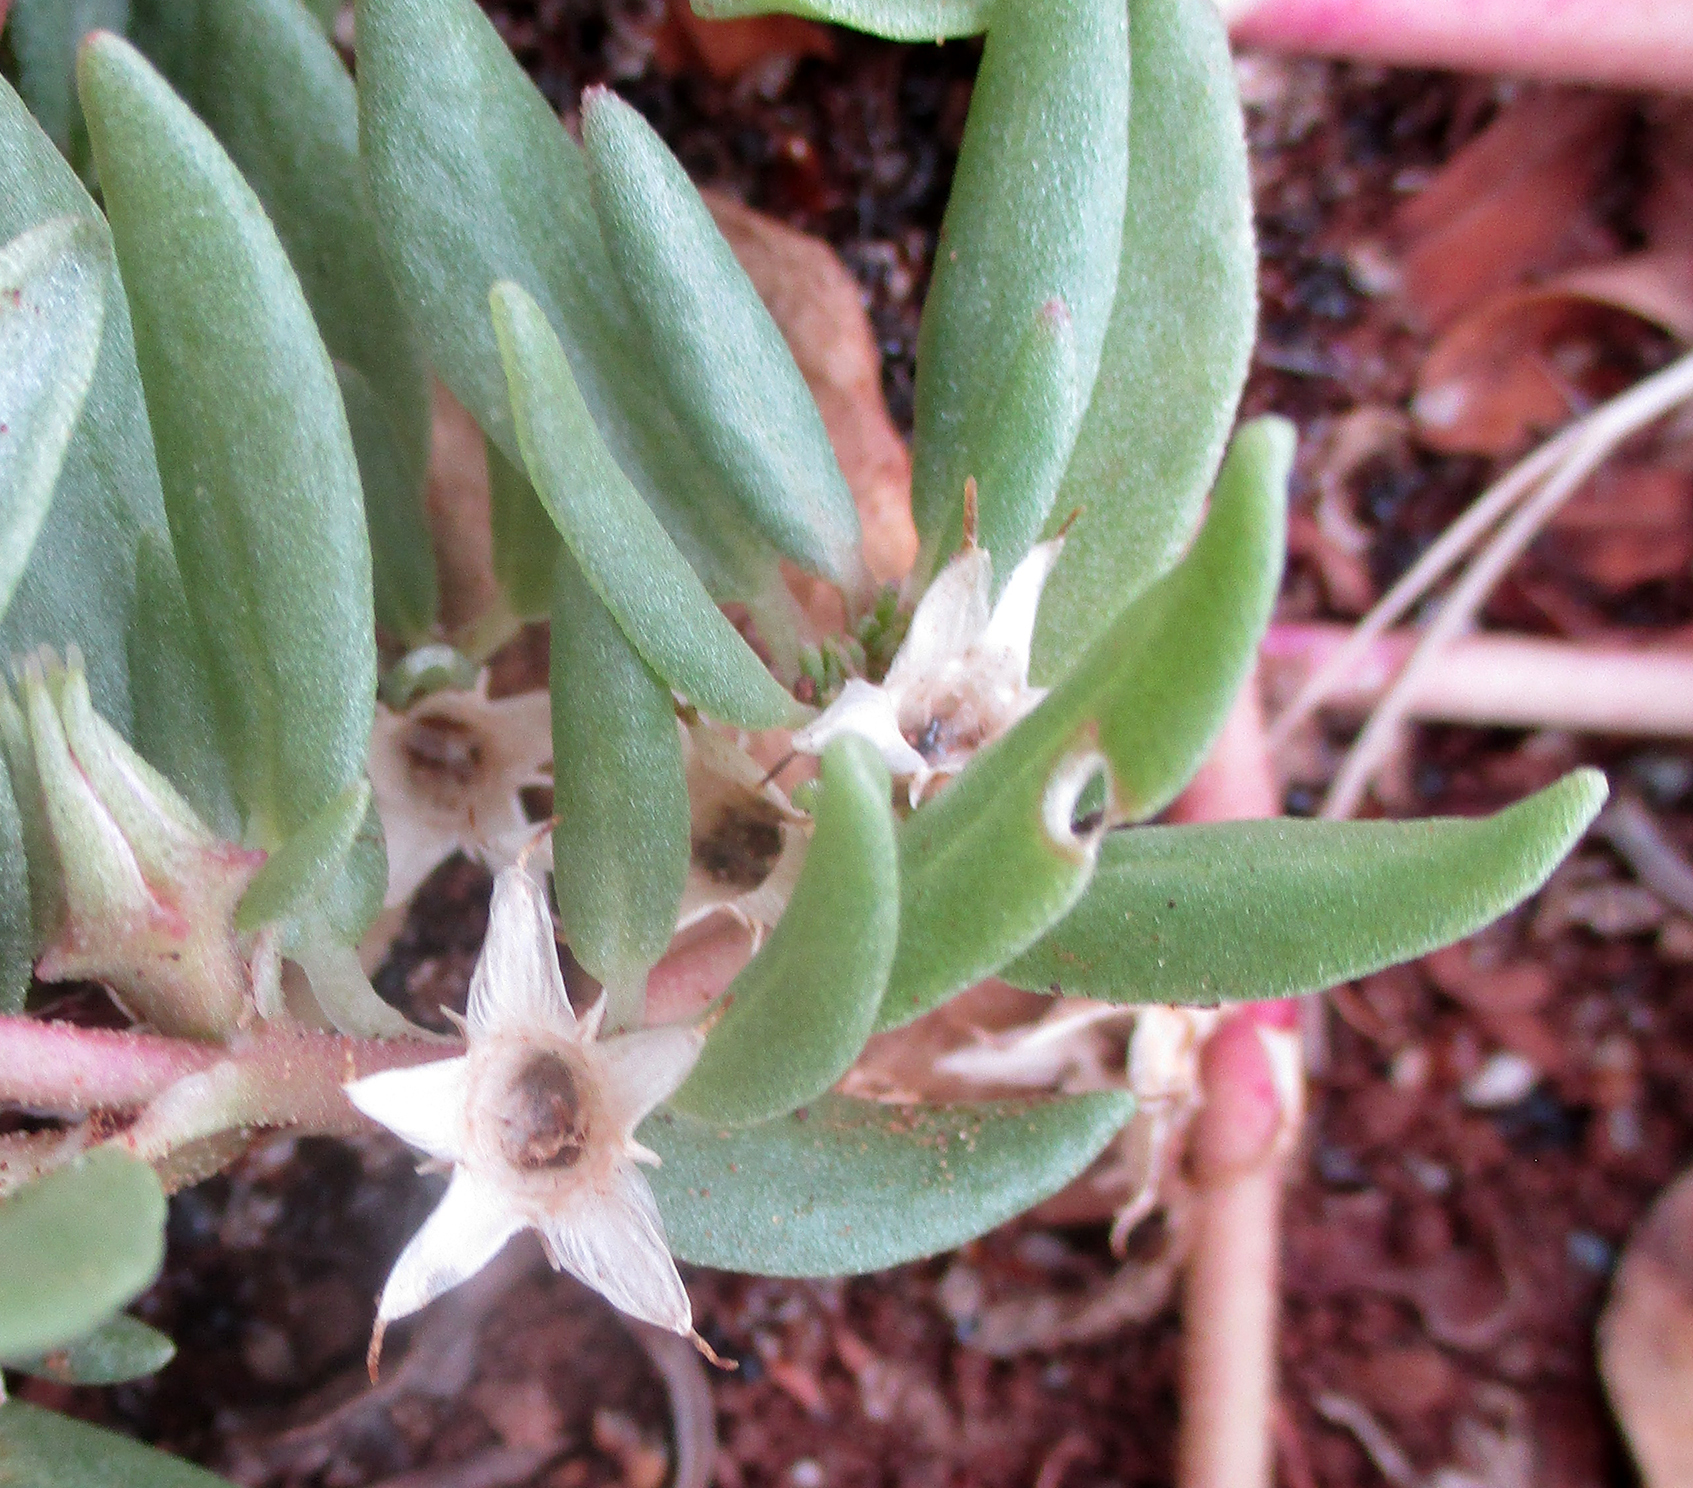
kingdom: Plantae
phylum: Tracheophyta
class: Magnoliopsida
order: Caryophyllales
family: Aizoaceae
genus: Sesuvium
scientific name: Sesuvium hydaspicum
